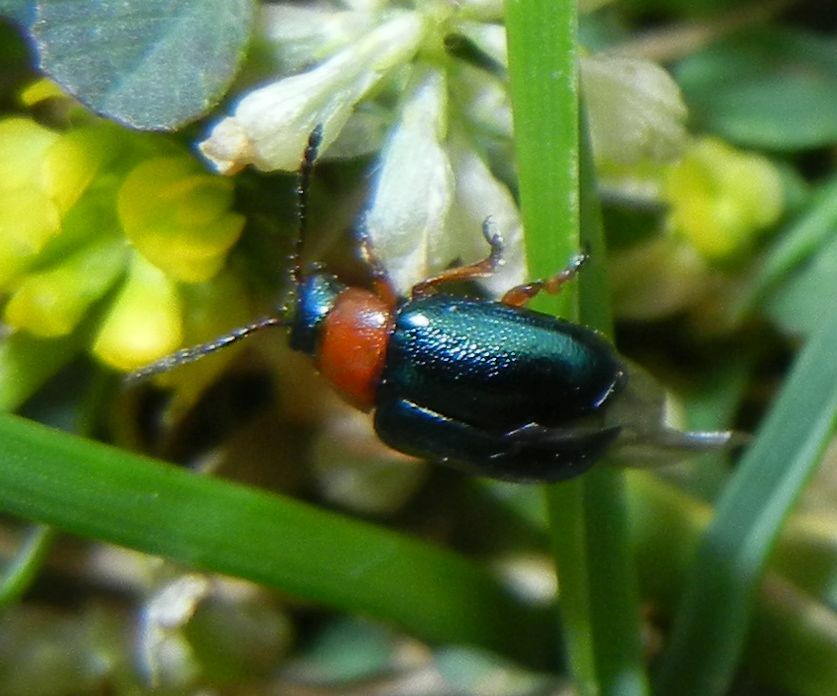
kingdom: Animalia
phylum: Arthropoda
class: Insecta
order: Coleoptera
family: Chrysomelidae
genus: Gastrophysa
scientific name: Gastrophysa polygoni
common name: Knotweed leaf beetle
